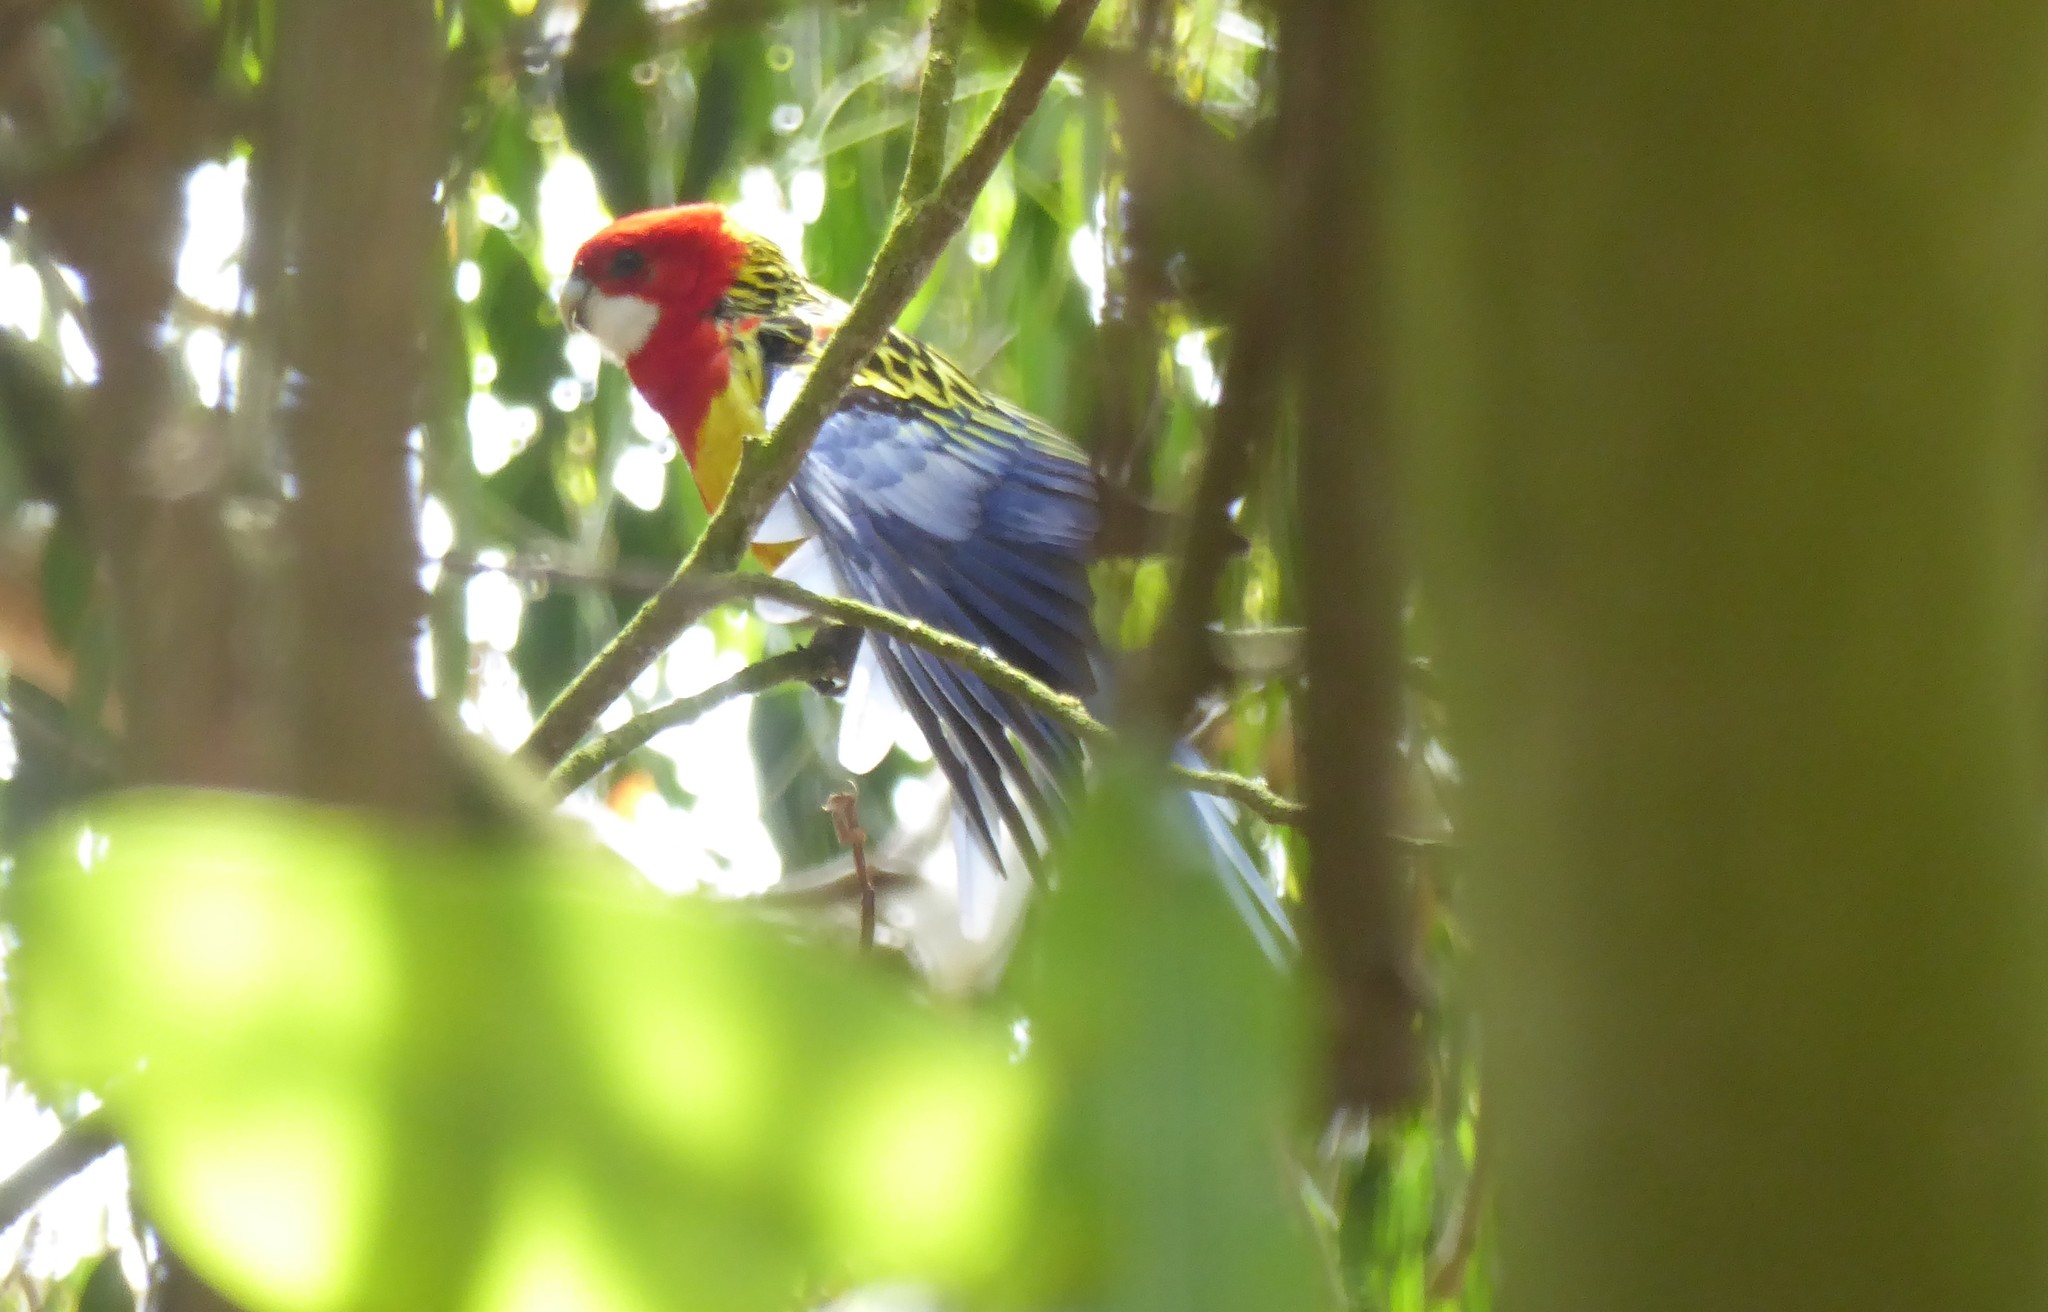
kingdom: Animalia
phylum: Chordata
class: Aves
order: Psittaciformes
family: Psittacidae
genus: Platycercus
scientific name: Platycercus eximius
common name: Eastern rosella
